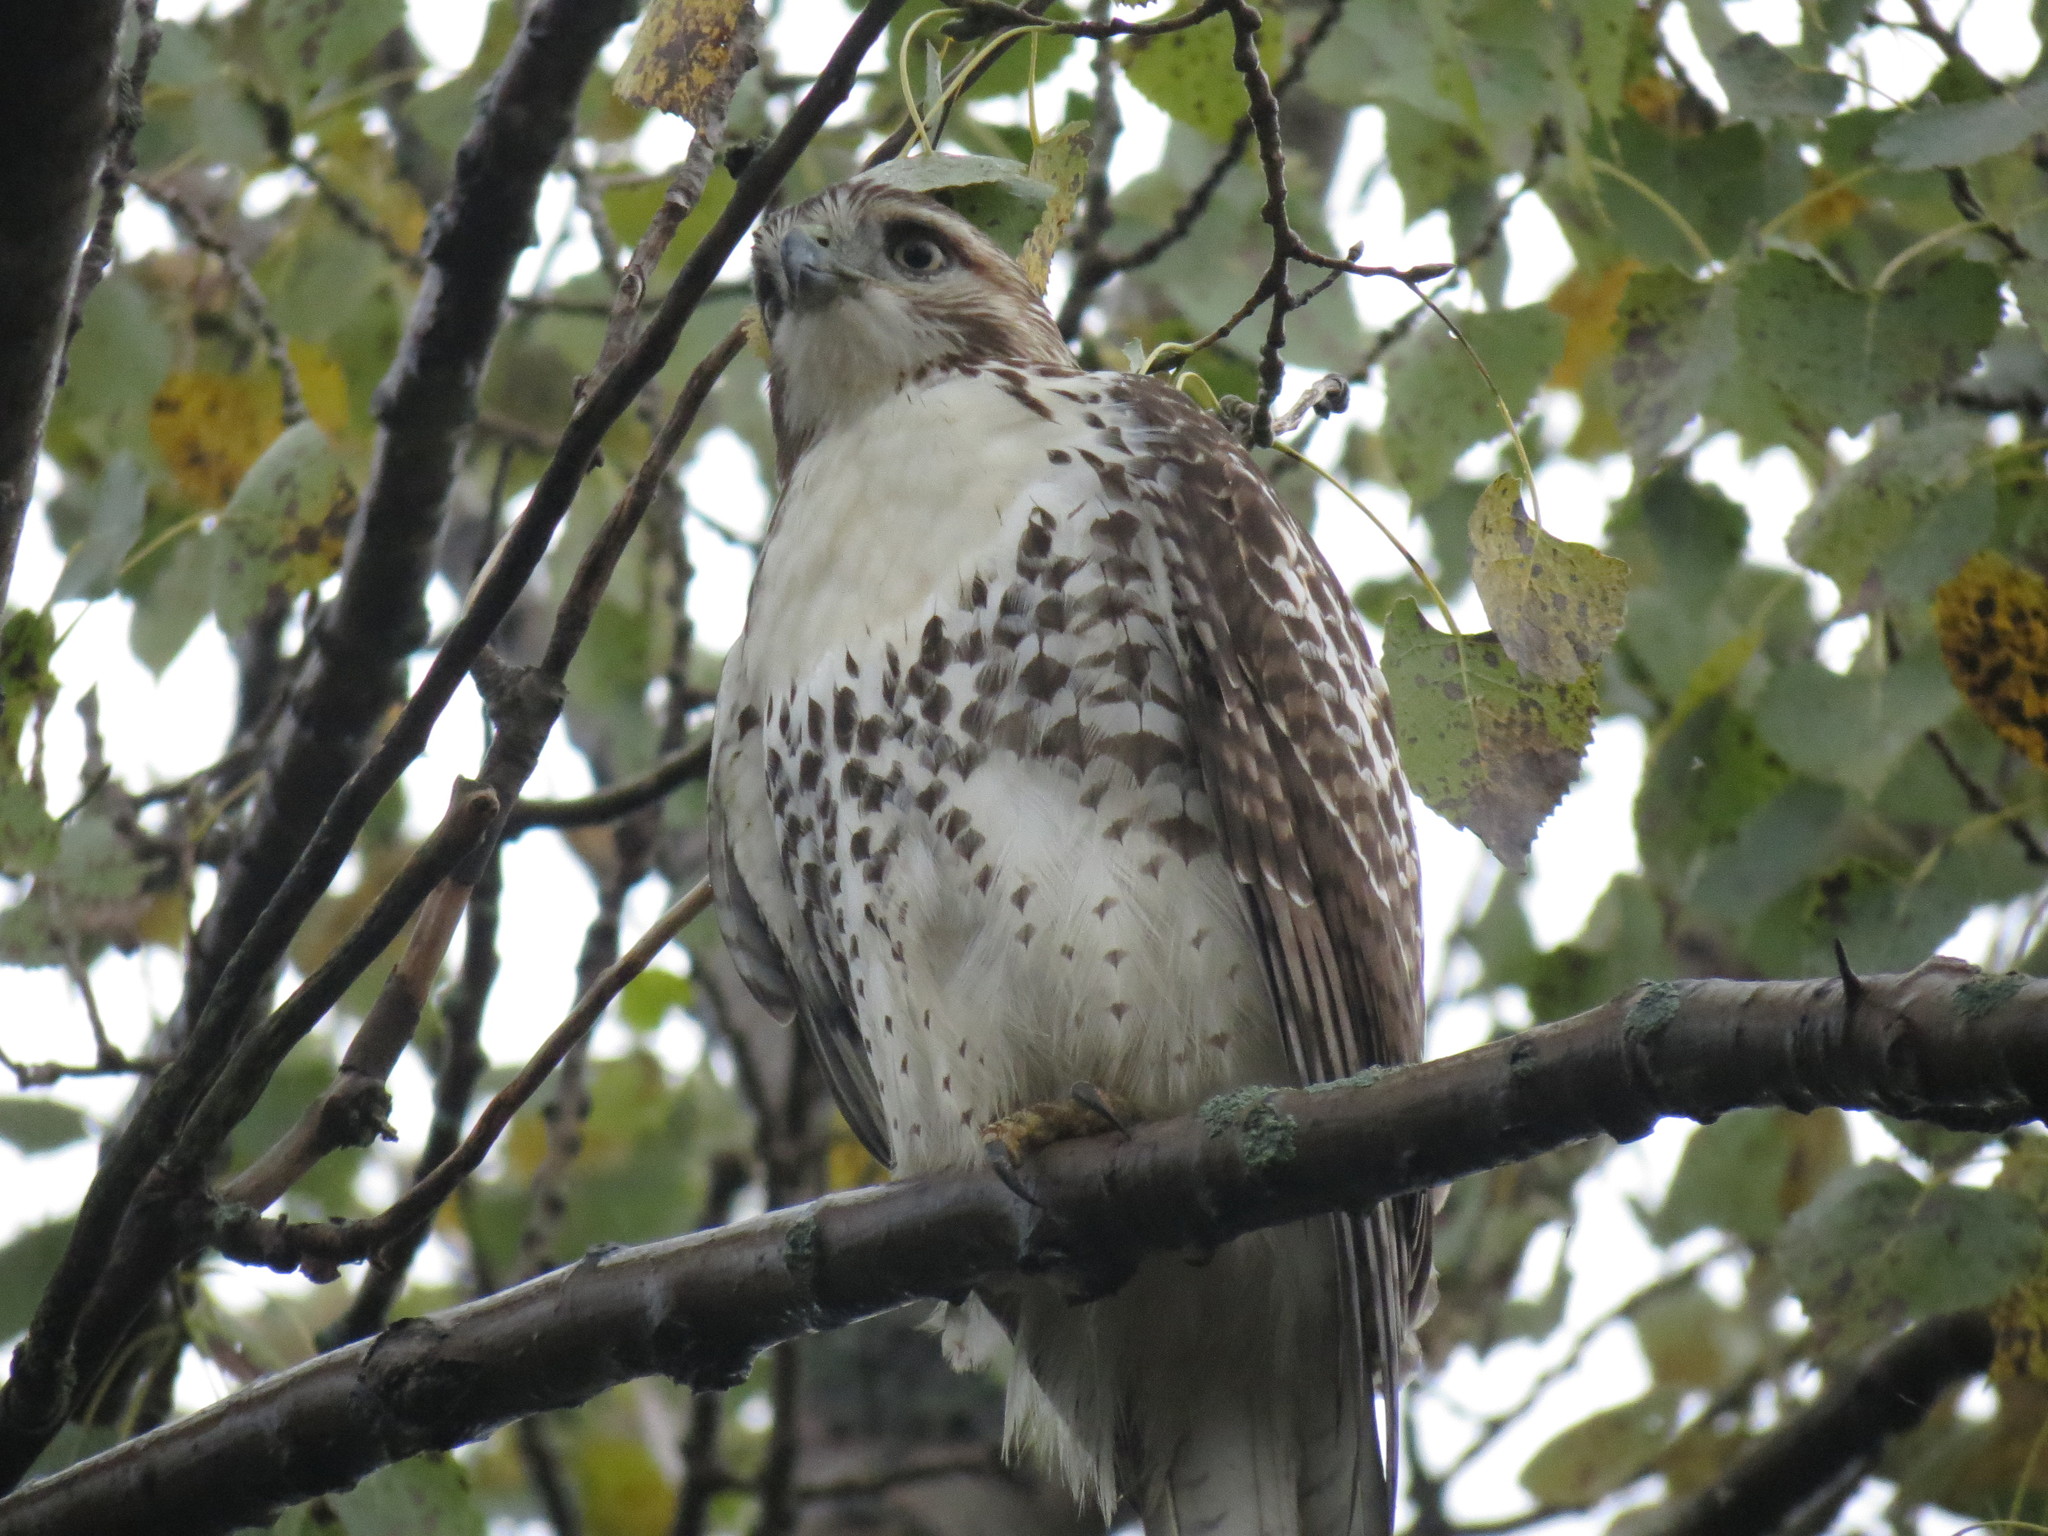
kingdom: Animalia
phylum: Chordata
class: Aves
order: Accipitriformes
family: Accipitridae
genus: Buteo
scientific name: Buteo jamaicensis
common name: Red-tailed hawk
